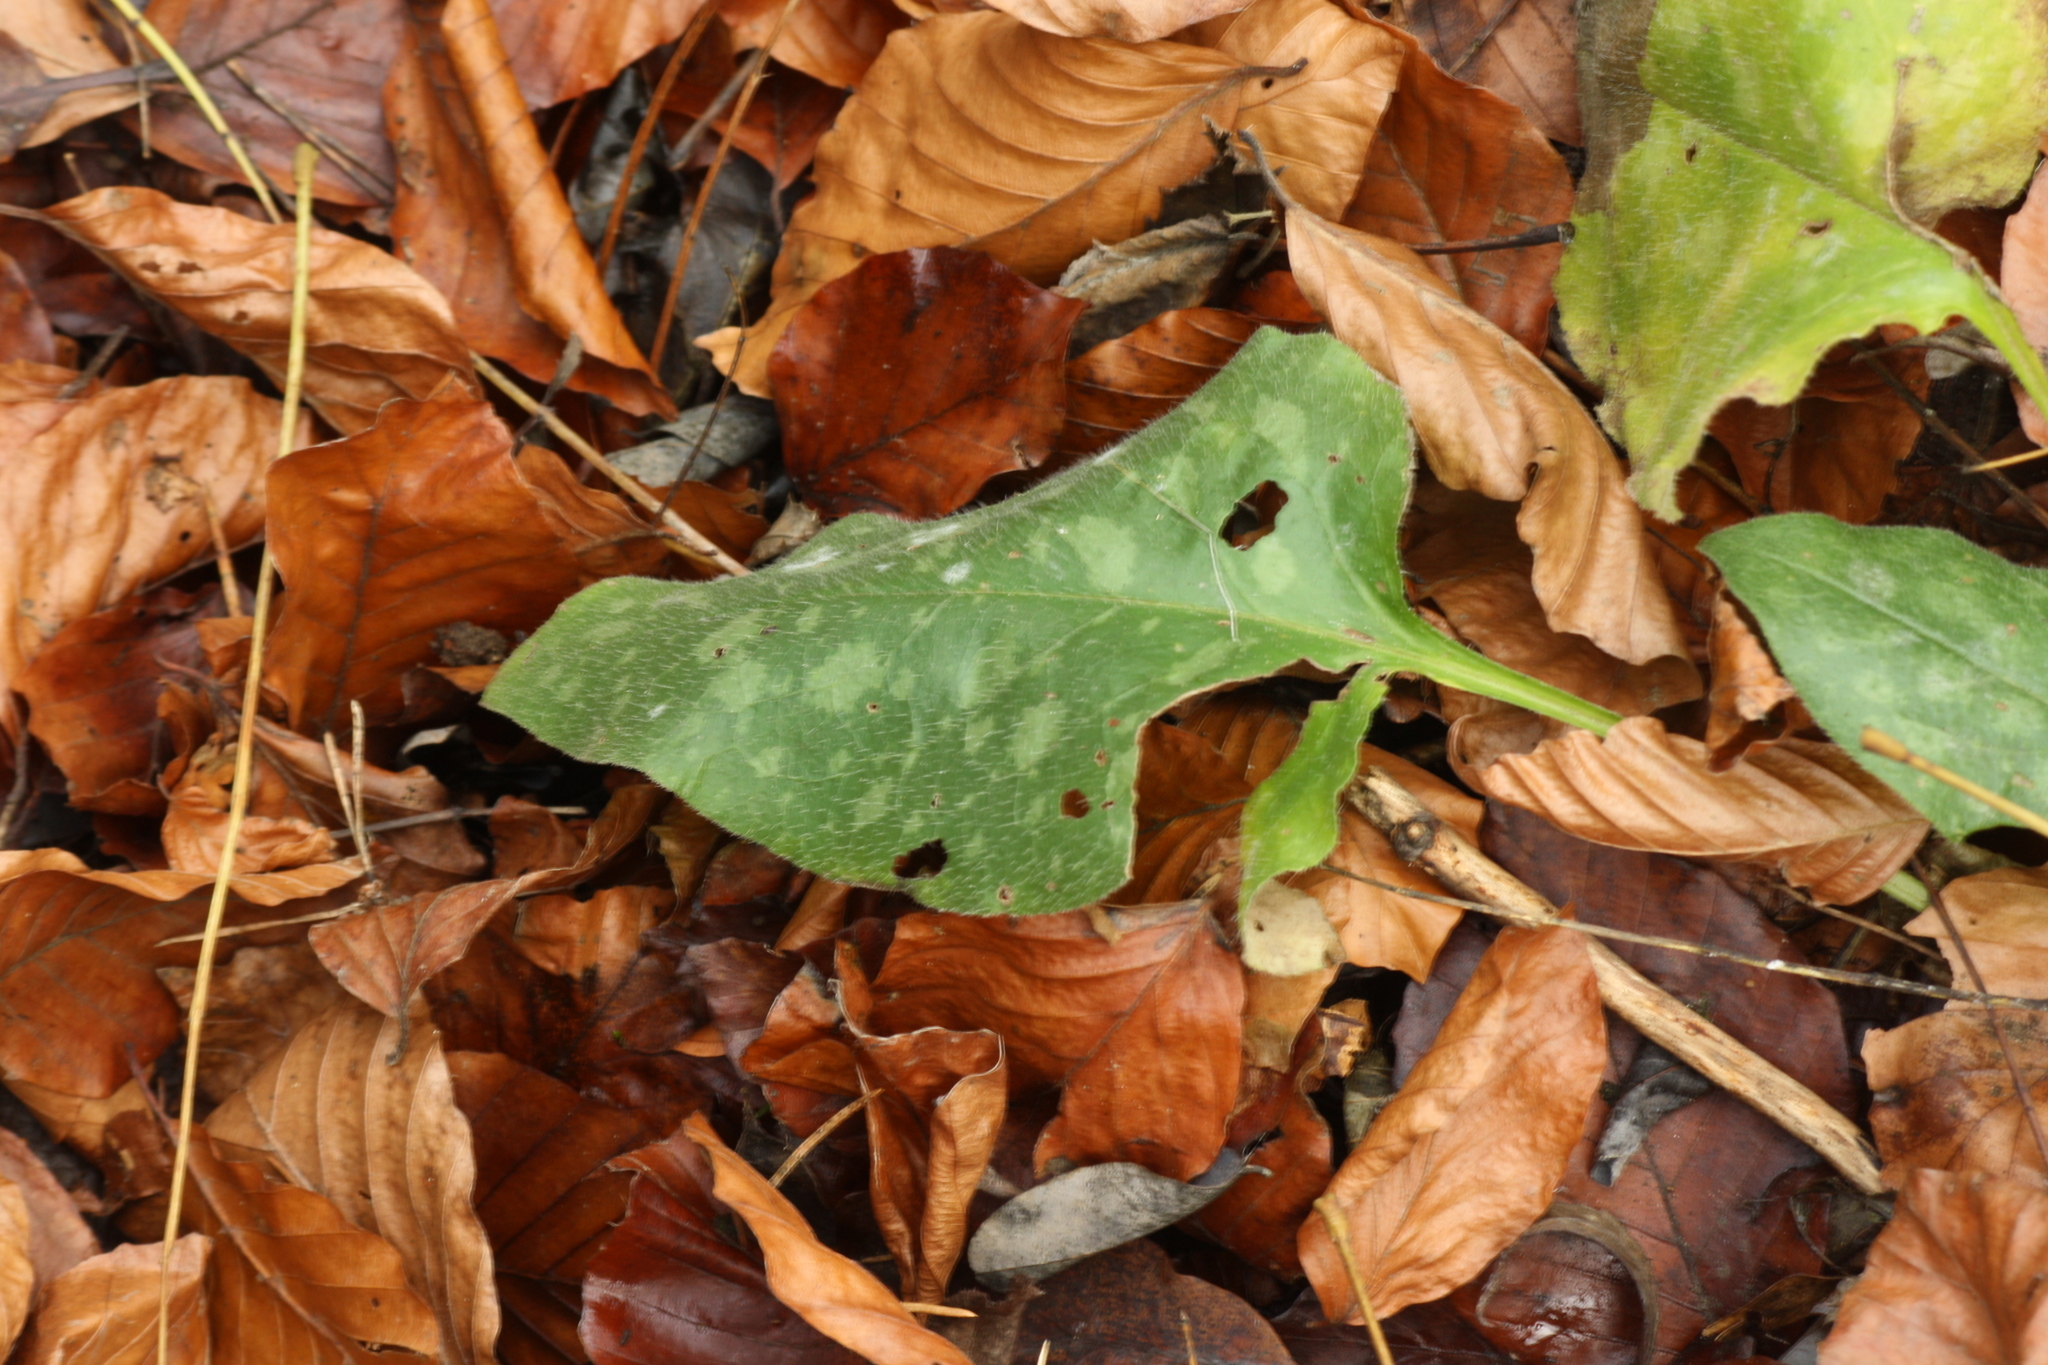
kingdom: Plantae
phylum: Tracheophyta
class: Magnoliopsida
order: Boraginales
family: Boraginaceae
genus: Pulmonaria
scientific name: Pulmonaria officinalis
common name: Lungwort
